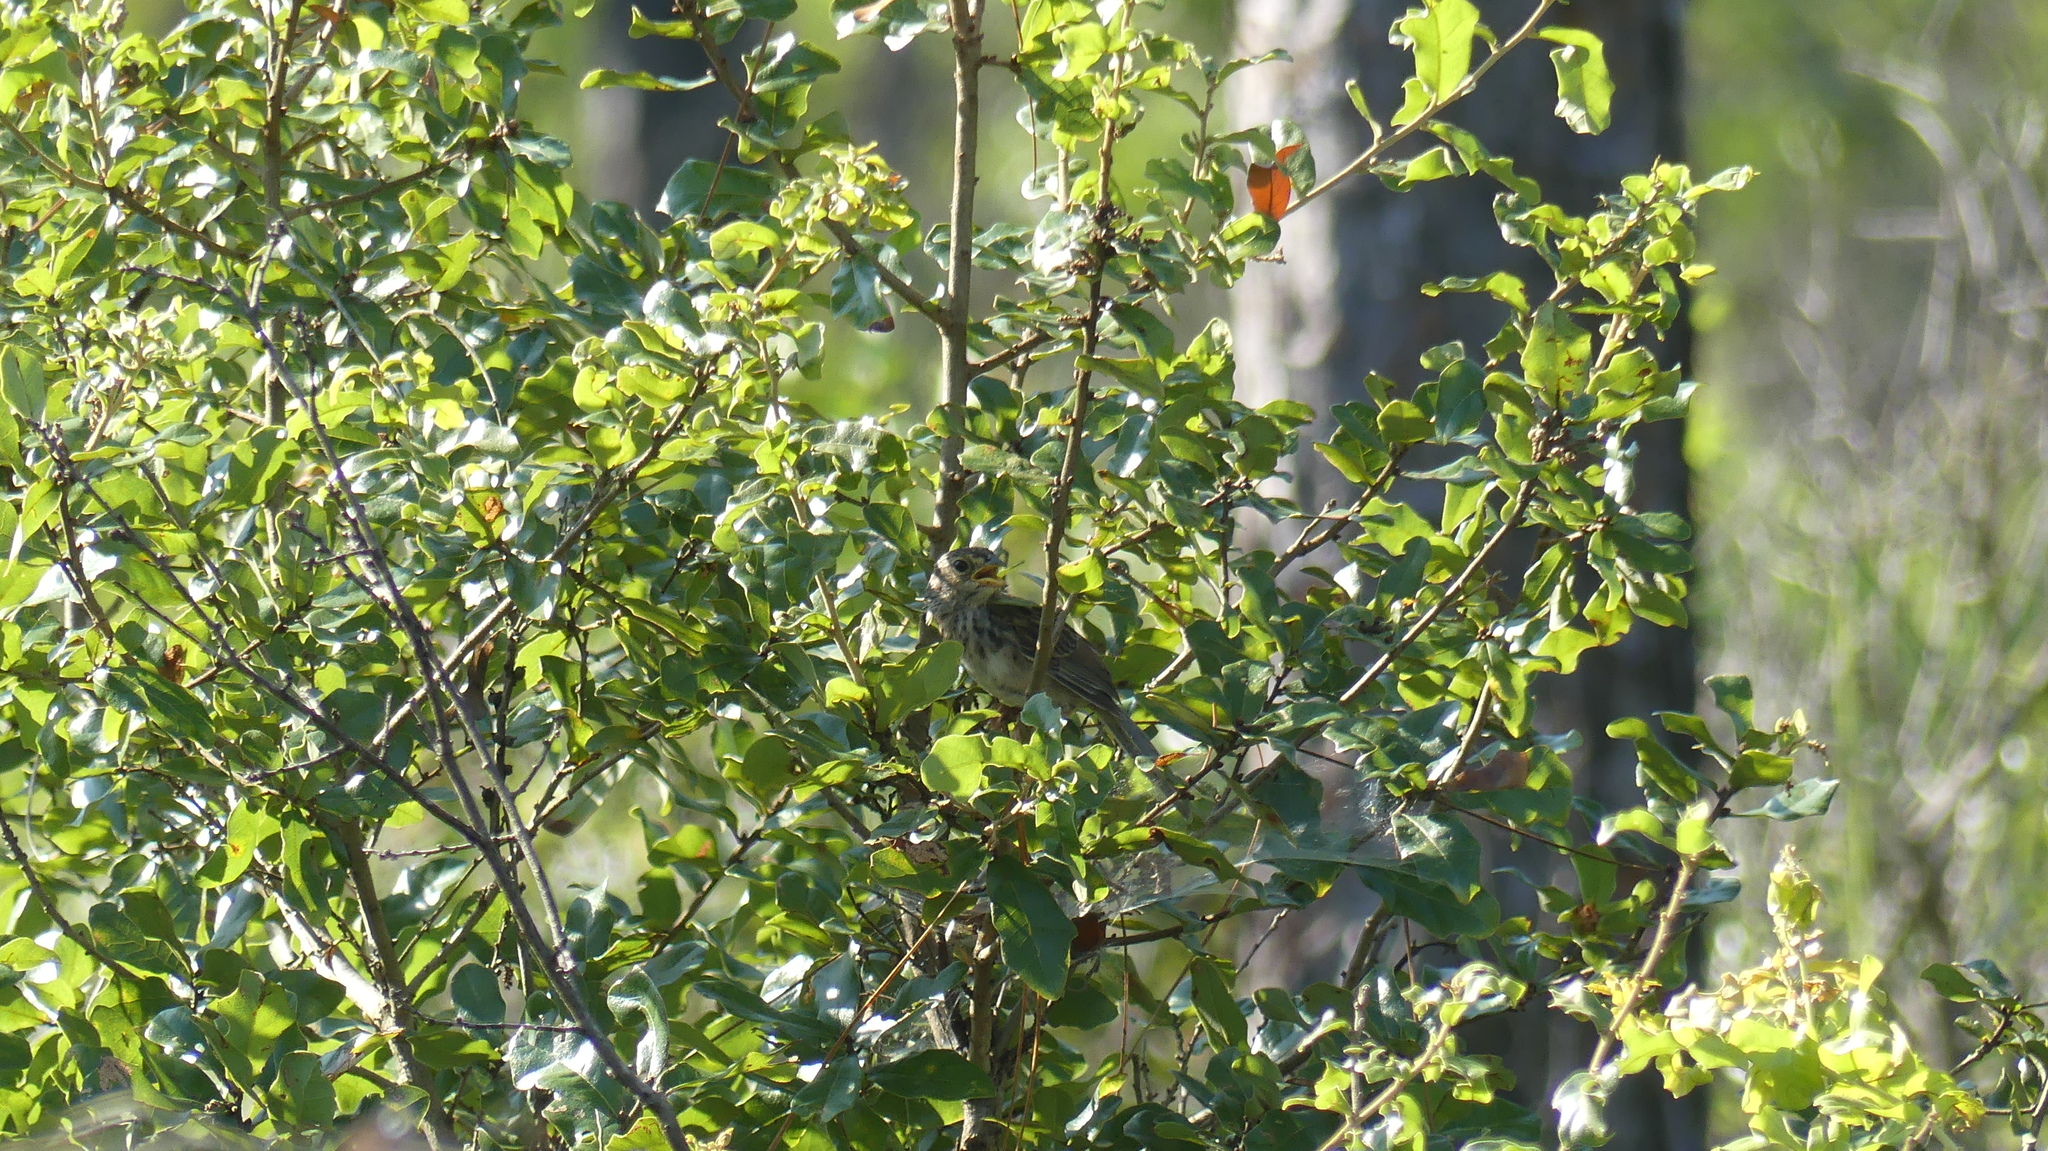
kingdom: Animalia
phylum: Chordata
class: Aves
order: Passeriformes
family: Passerellidae
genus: Peucaea
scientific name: Peucaea aestivalis
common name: Bachman's sparrow
